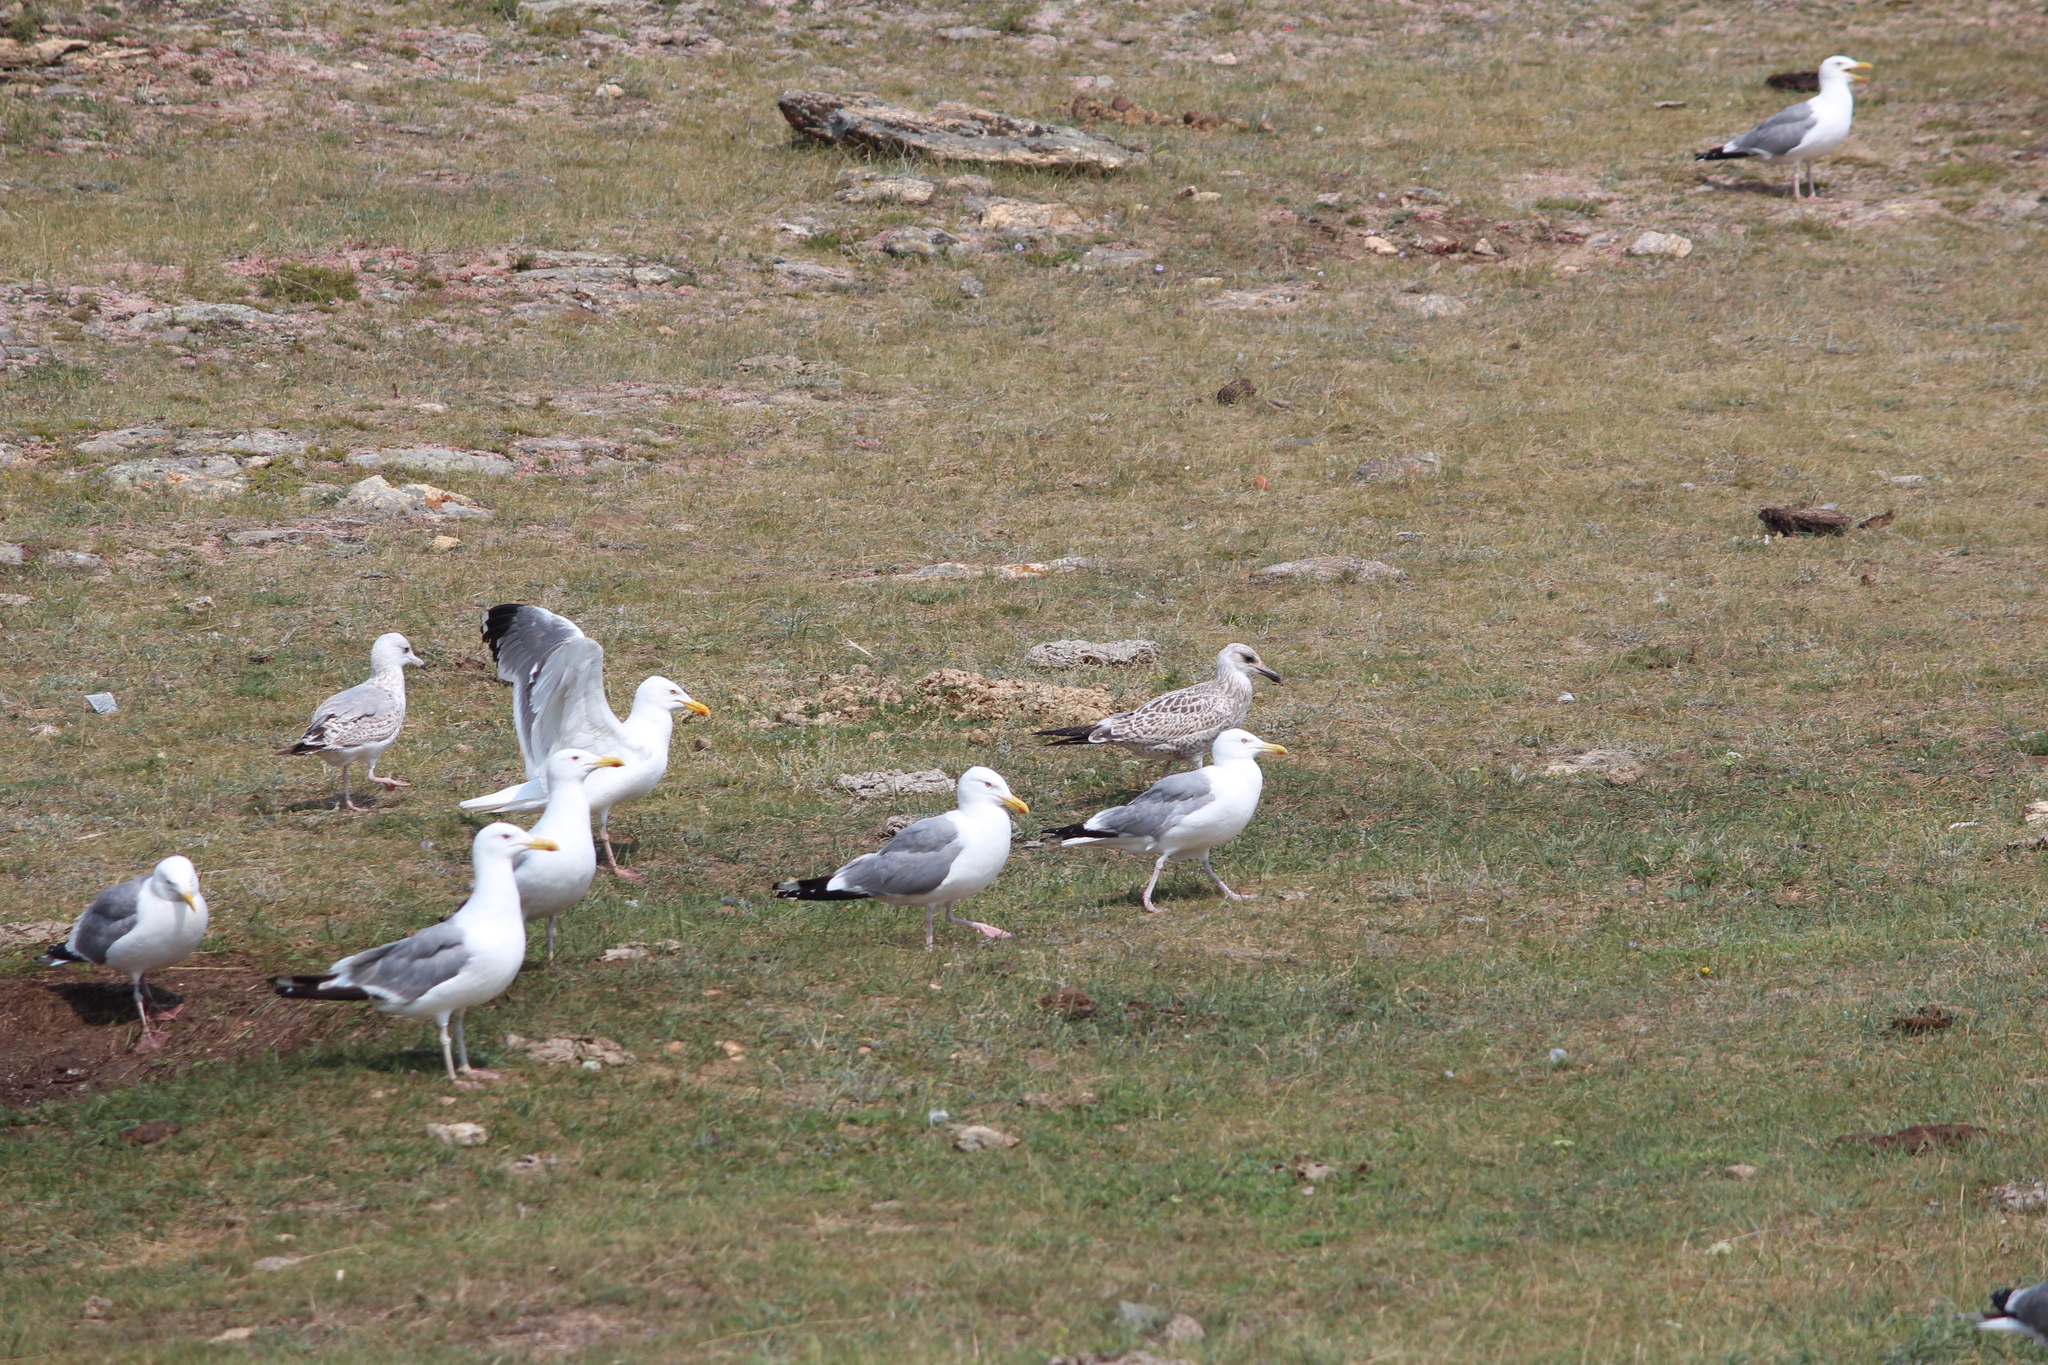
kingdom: Animalia
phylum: Chordata
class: Aves
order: Charadriiformes
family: Laridae
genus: Larus
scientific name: Larus vegae
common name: Vega gull
